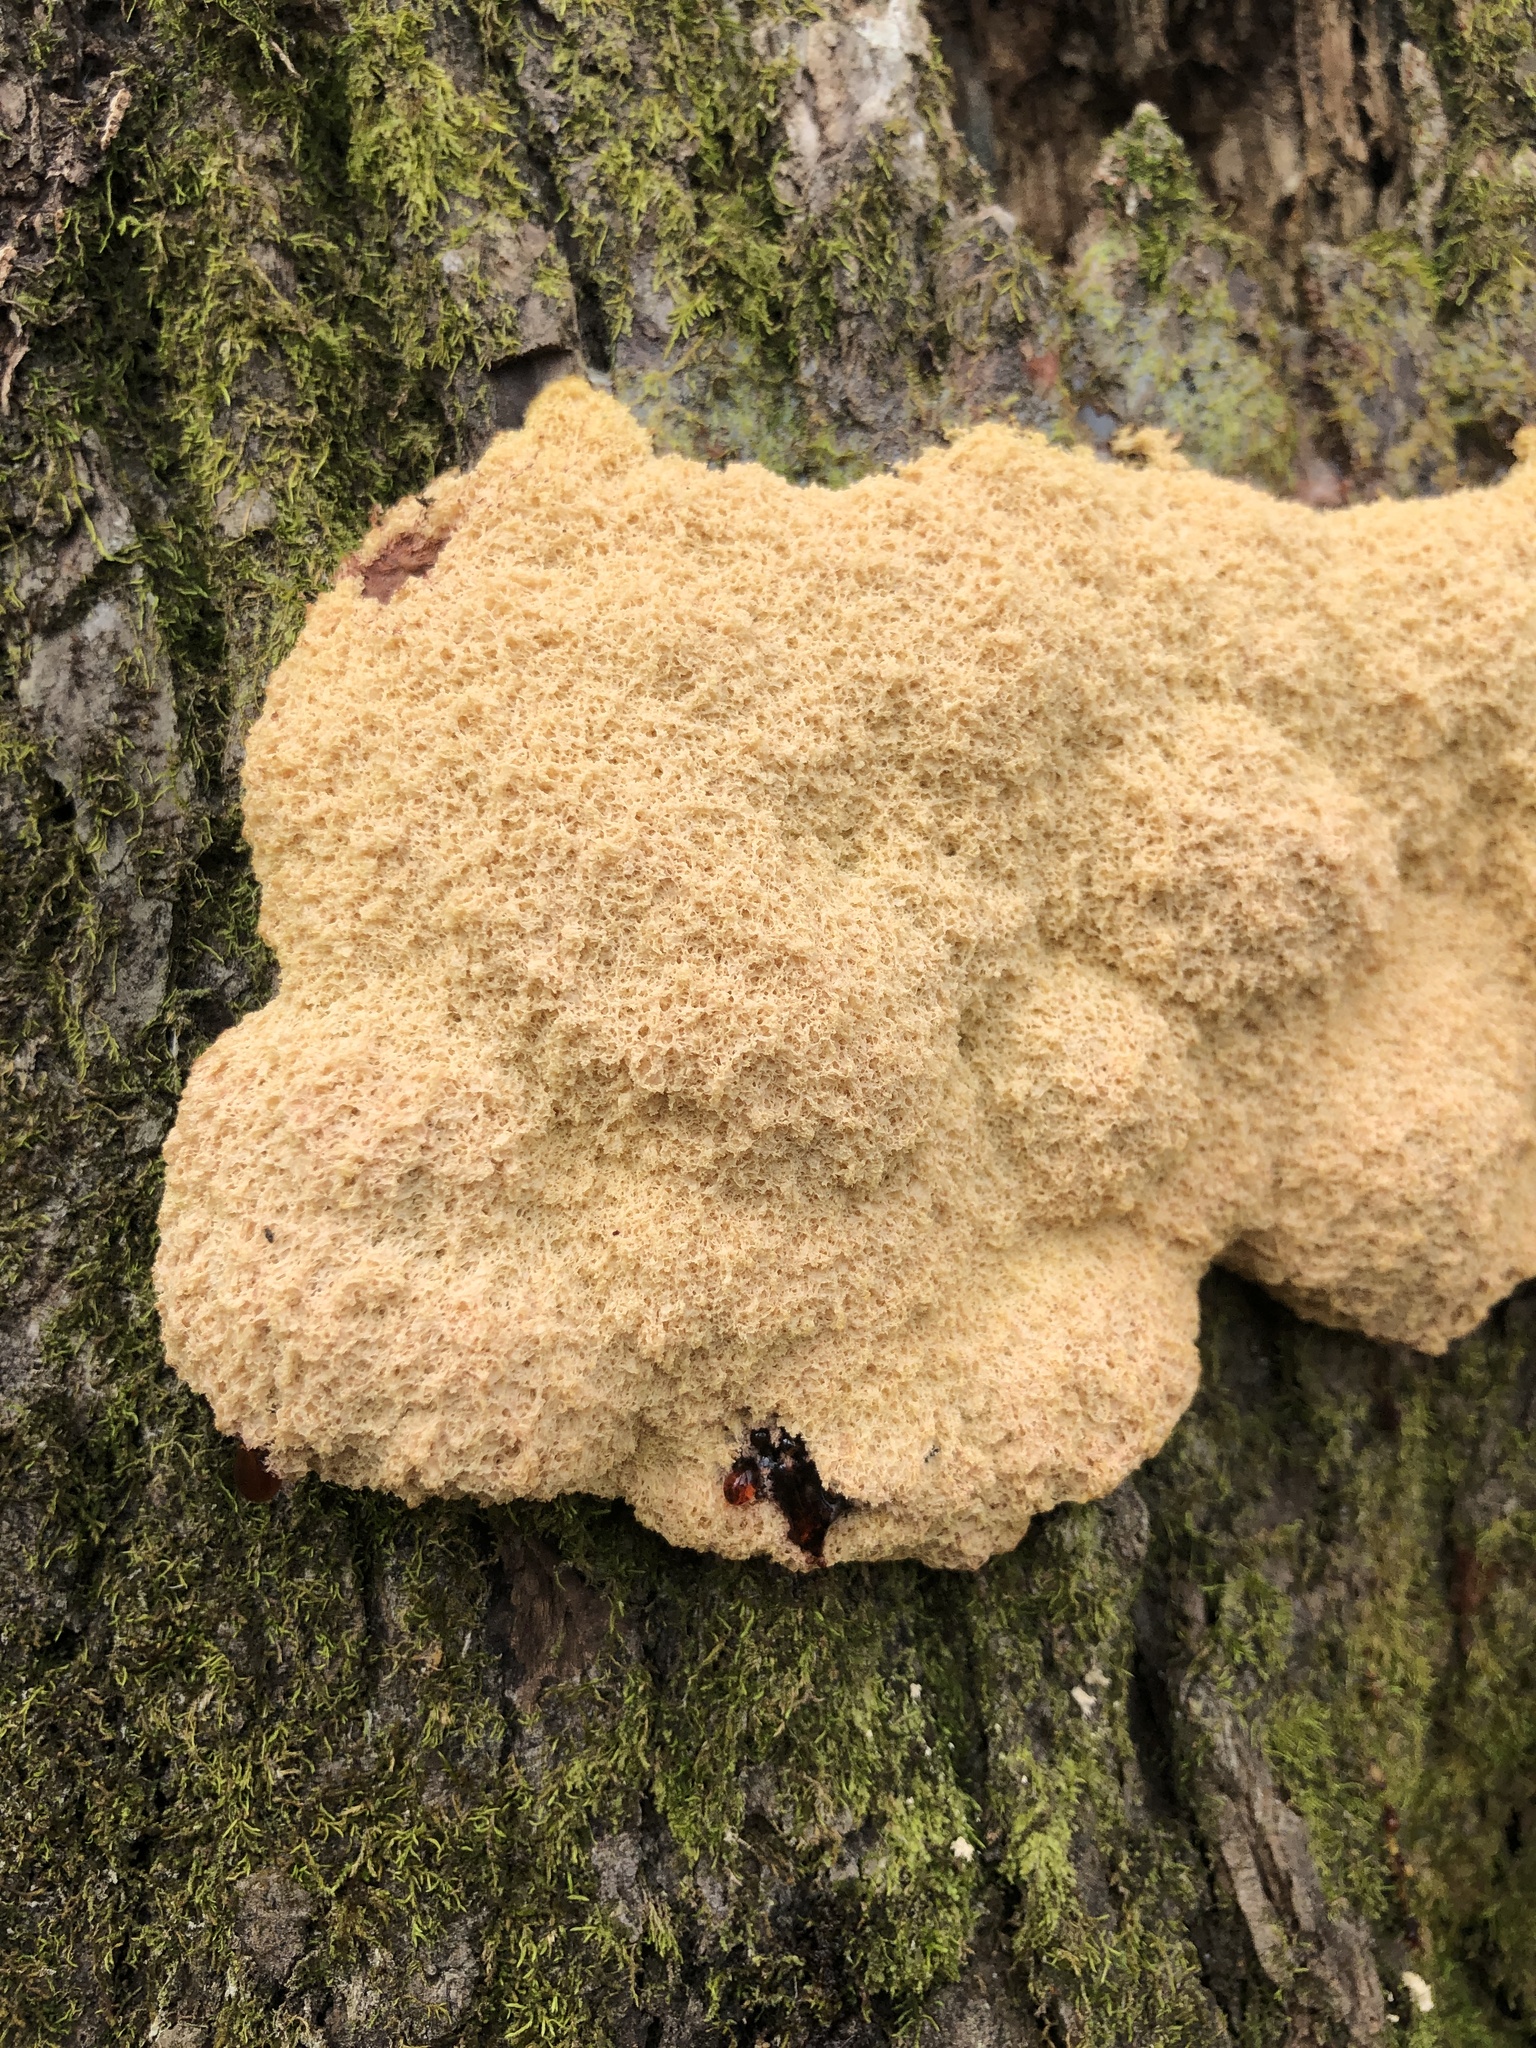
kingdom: Protozoa
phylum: Mycetozoa
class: Myxomycetes
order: Physarales
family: Physaraceae
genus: Fuligo
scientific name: Fuligo septica
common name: Dog vomit slime mold
